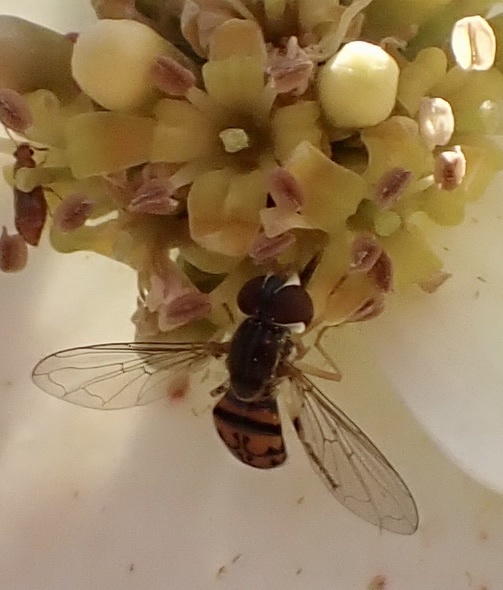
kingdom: Animalia
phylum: Arthropoda
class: Insecta
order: Diptera
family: Syrphidae
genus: Toxomerus
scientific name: Toxomerus boscii
